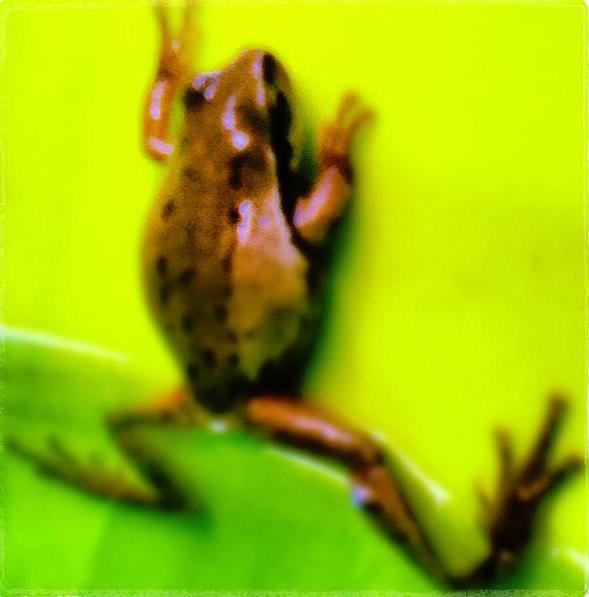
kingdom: Animalia
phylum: Chordata
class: Amphibia
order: Anura
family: Hylidae
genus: Dryophytes
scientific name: Dryophytes euphorbiaceus
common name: Southern highland treefrog
